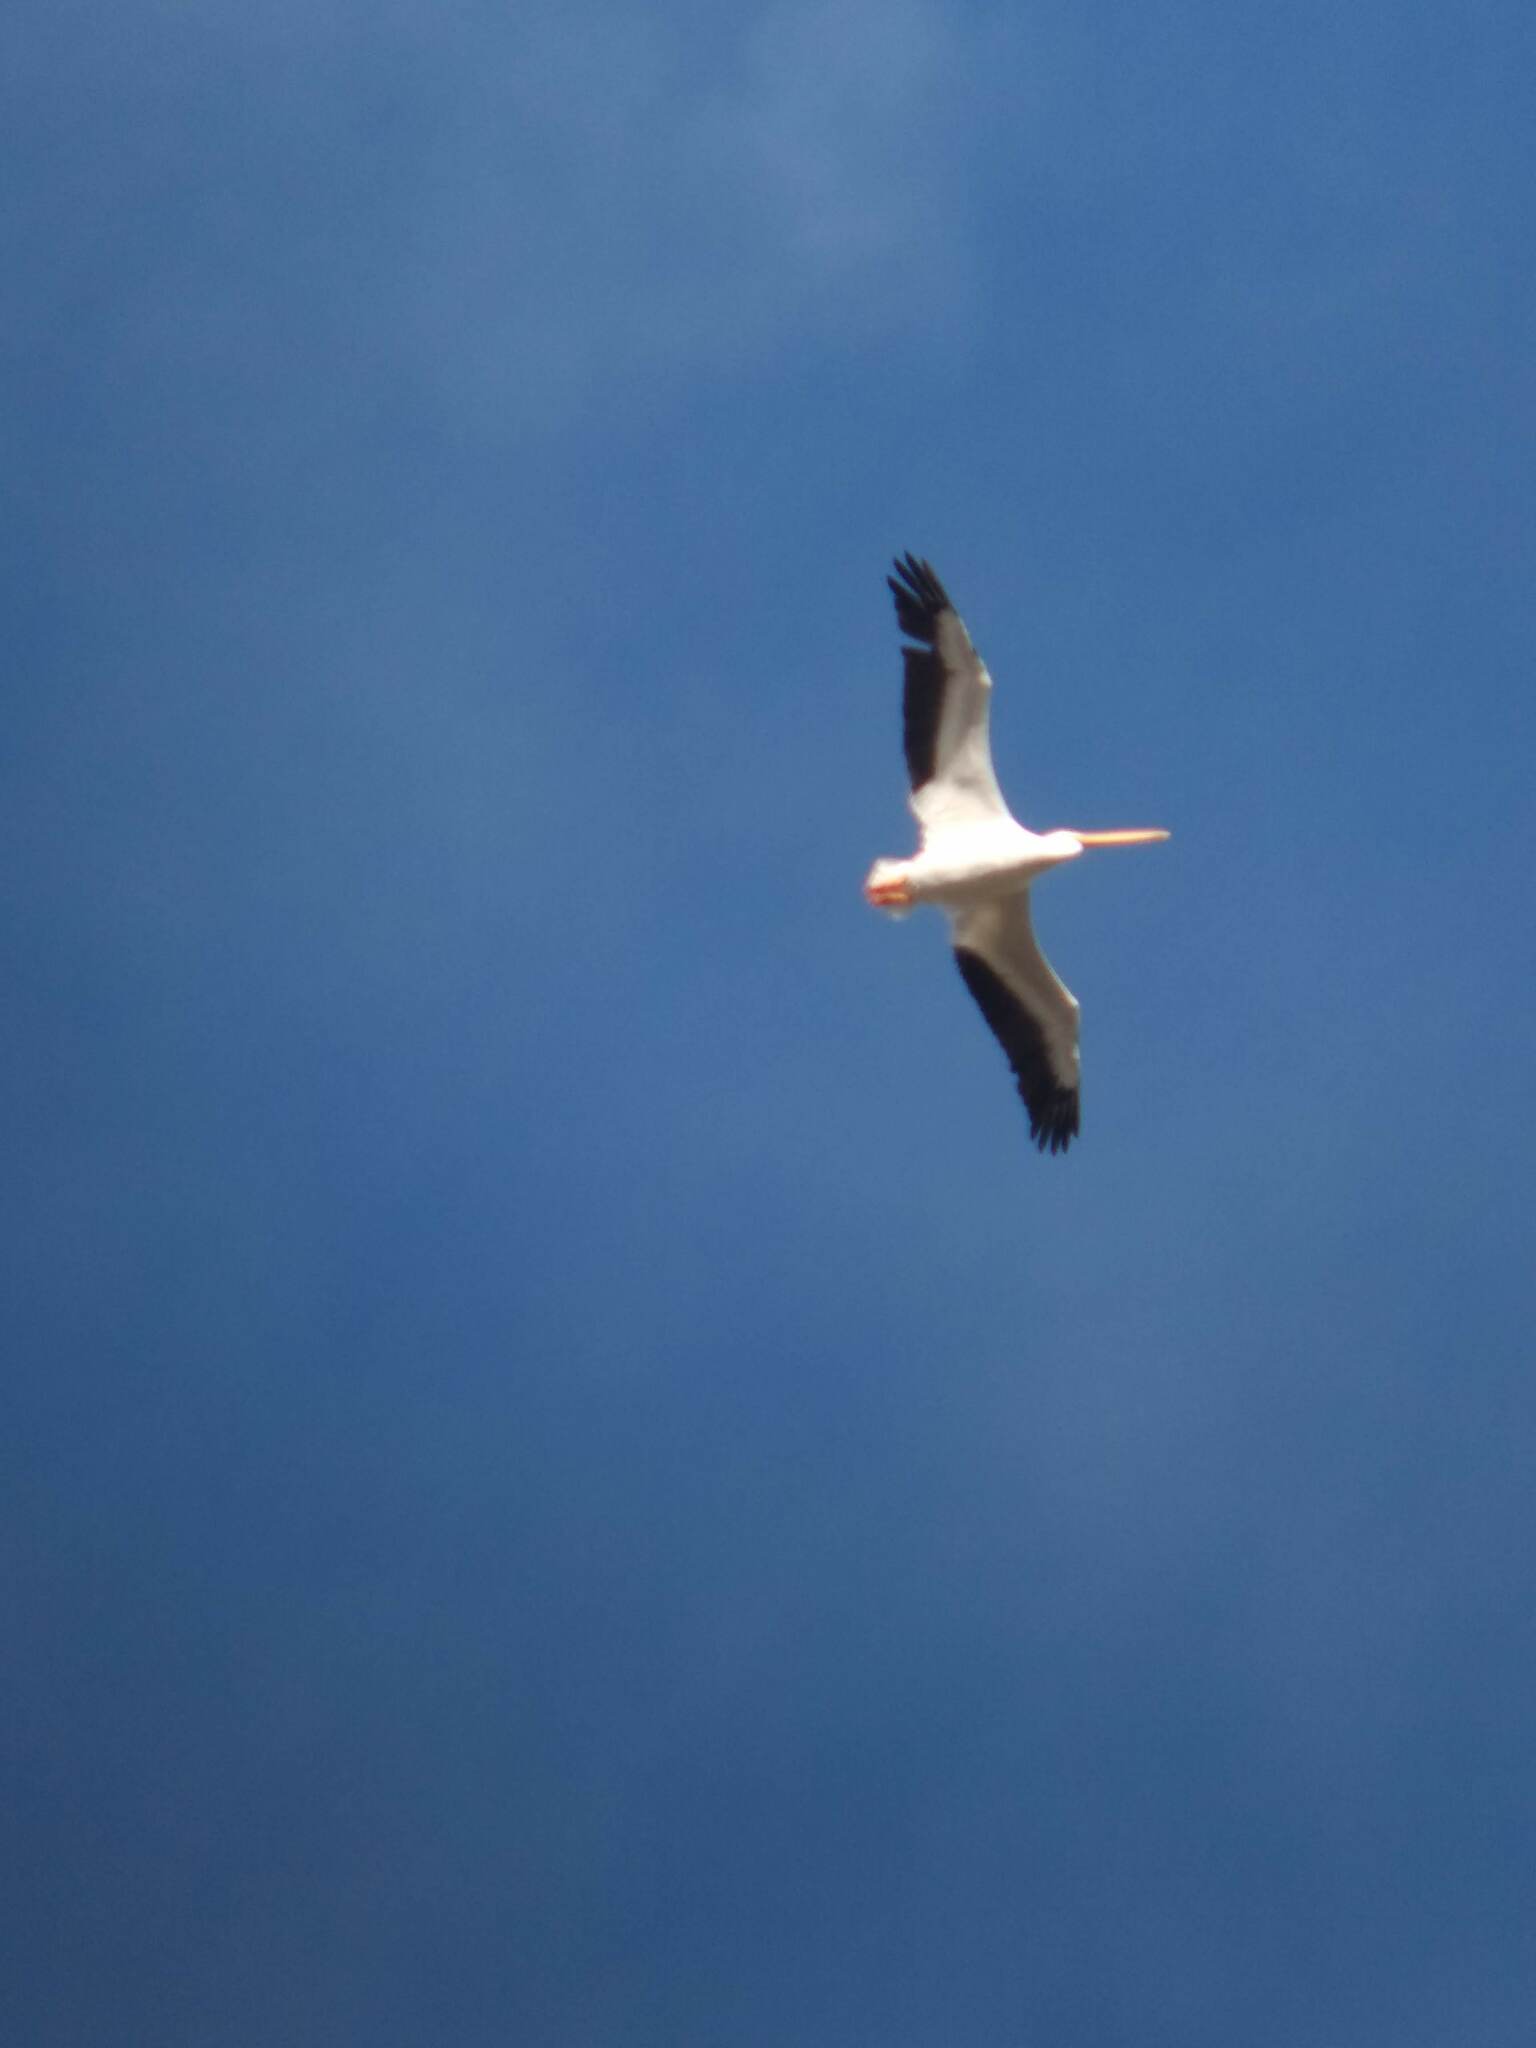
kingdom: Animalia
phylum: Chordata
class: Aves
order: Pelecaniformes
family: Pelecanidae
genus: Pelecanus
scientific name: Pelecanus erythrorhynchos
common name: American white pelican
